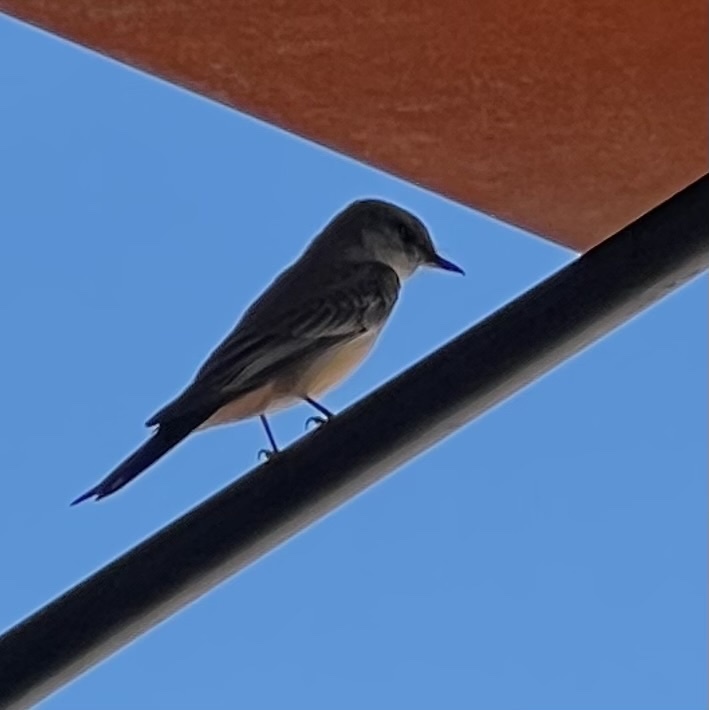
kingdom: Animalia
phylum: Chordata
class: Aves
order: Passeriformes
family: Tyrannidae
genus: Sayornis
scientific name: Sayornis saya
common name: Say's phoebe
